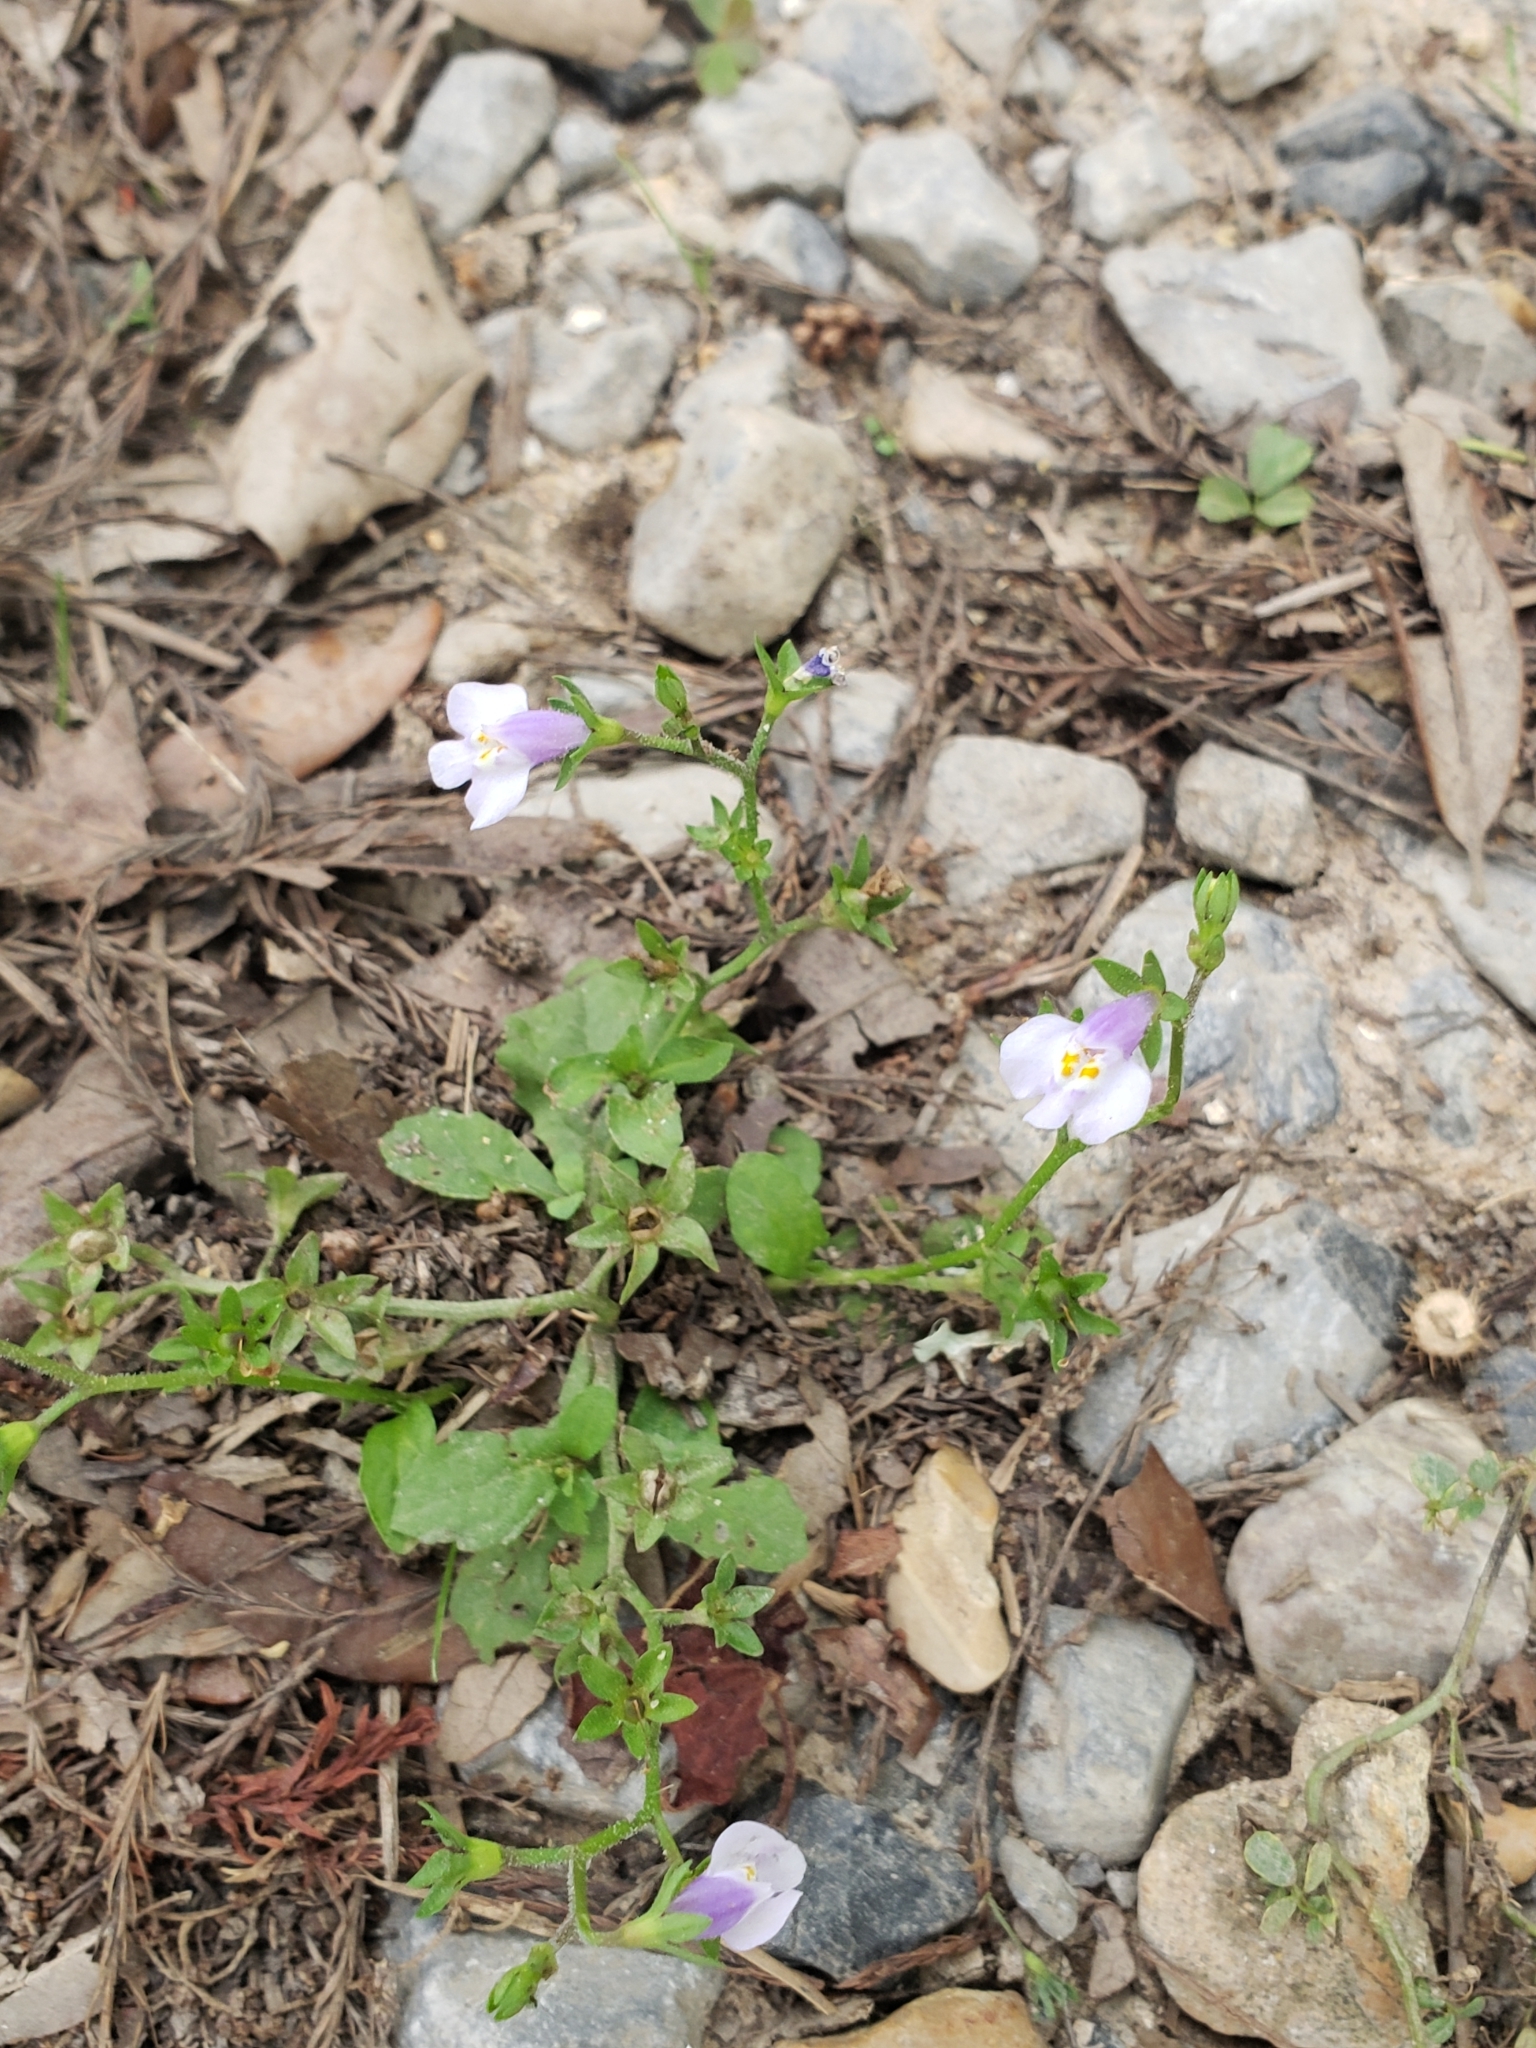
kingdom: Plantae
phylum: Tracheophyta
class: Magnoliopsida
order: Lamiales
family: Mazaceae
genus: Mazus
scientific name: Mazus pumilus
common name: Japanese mazus
